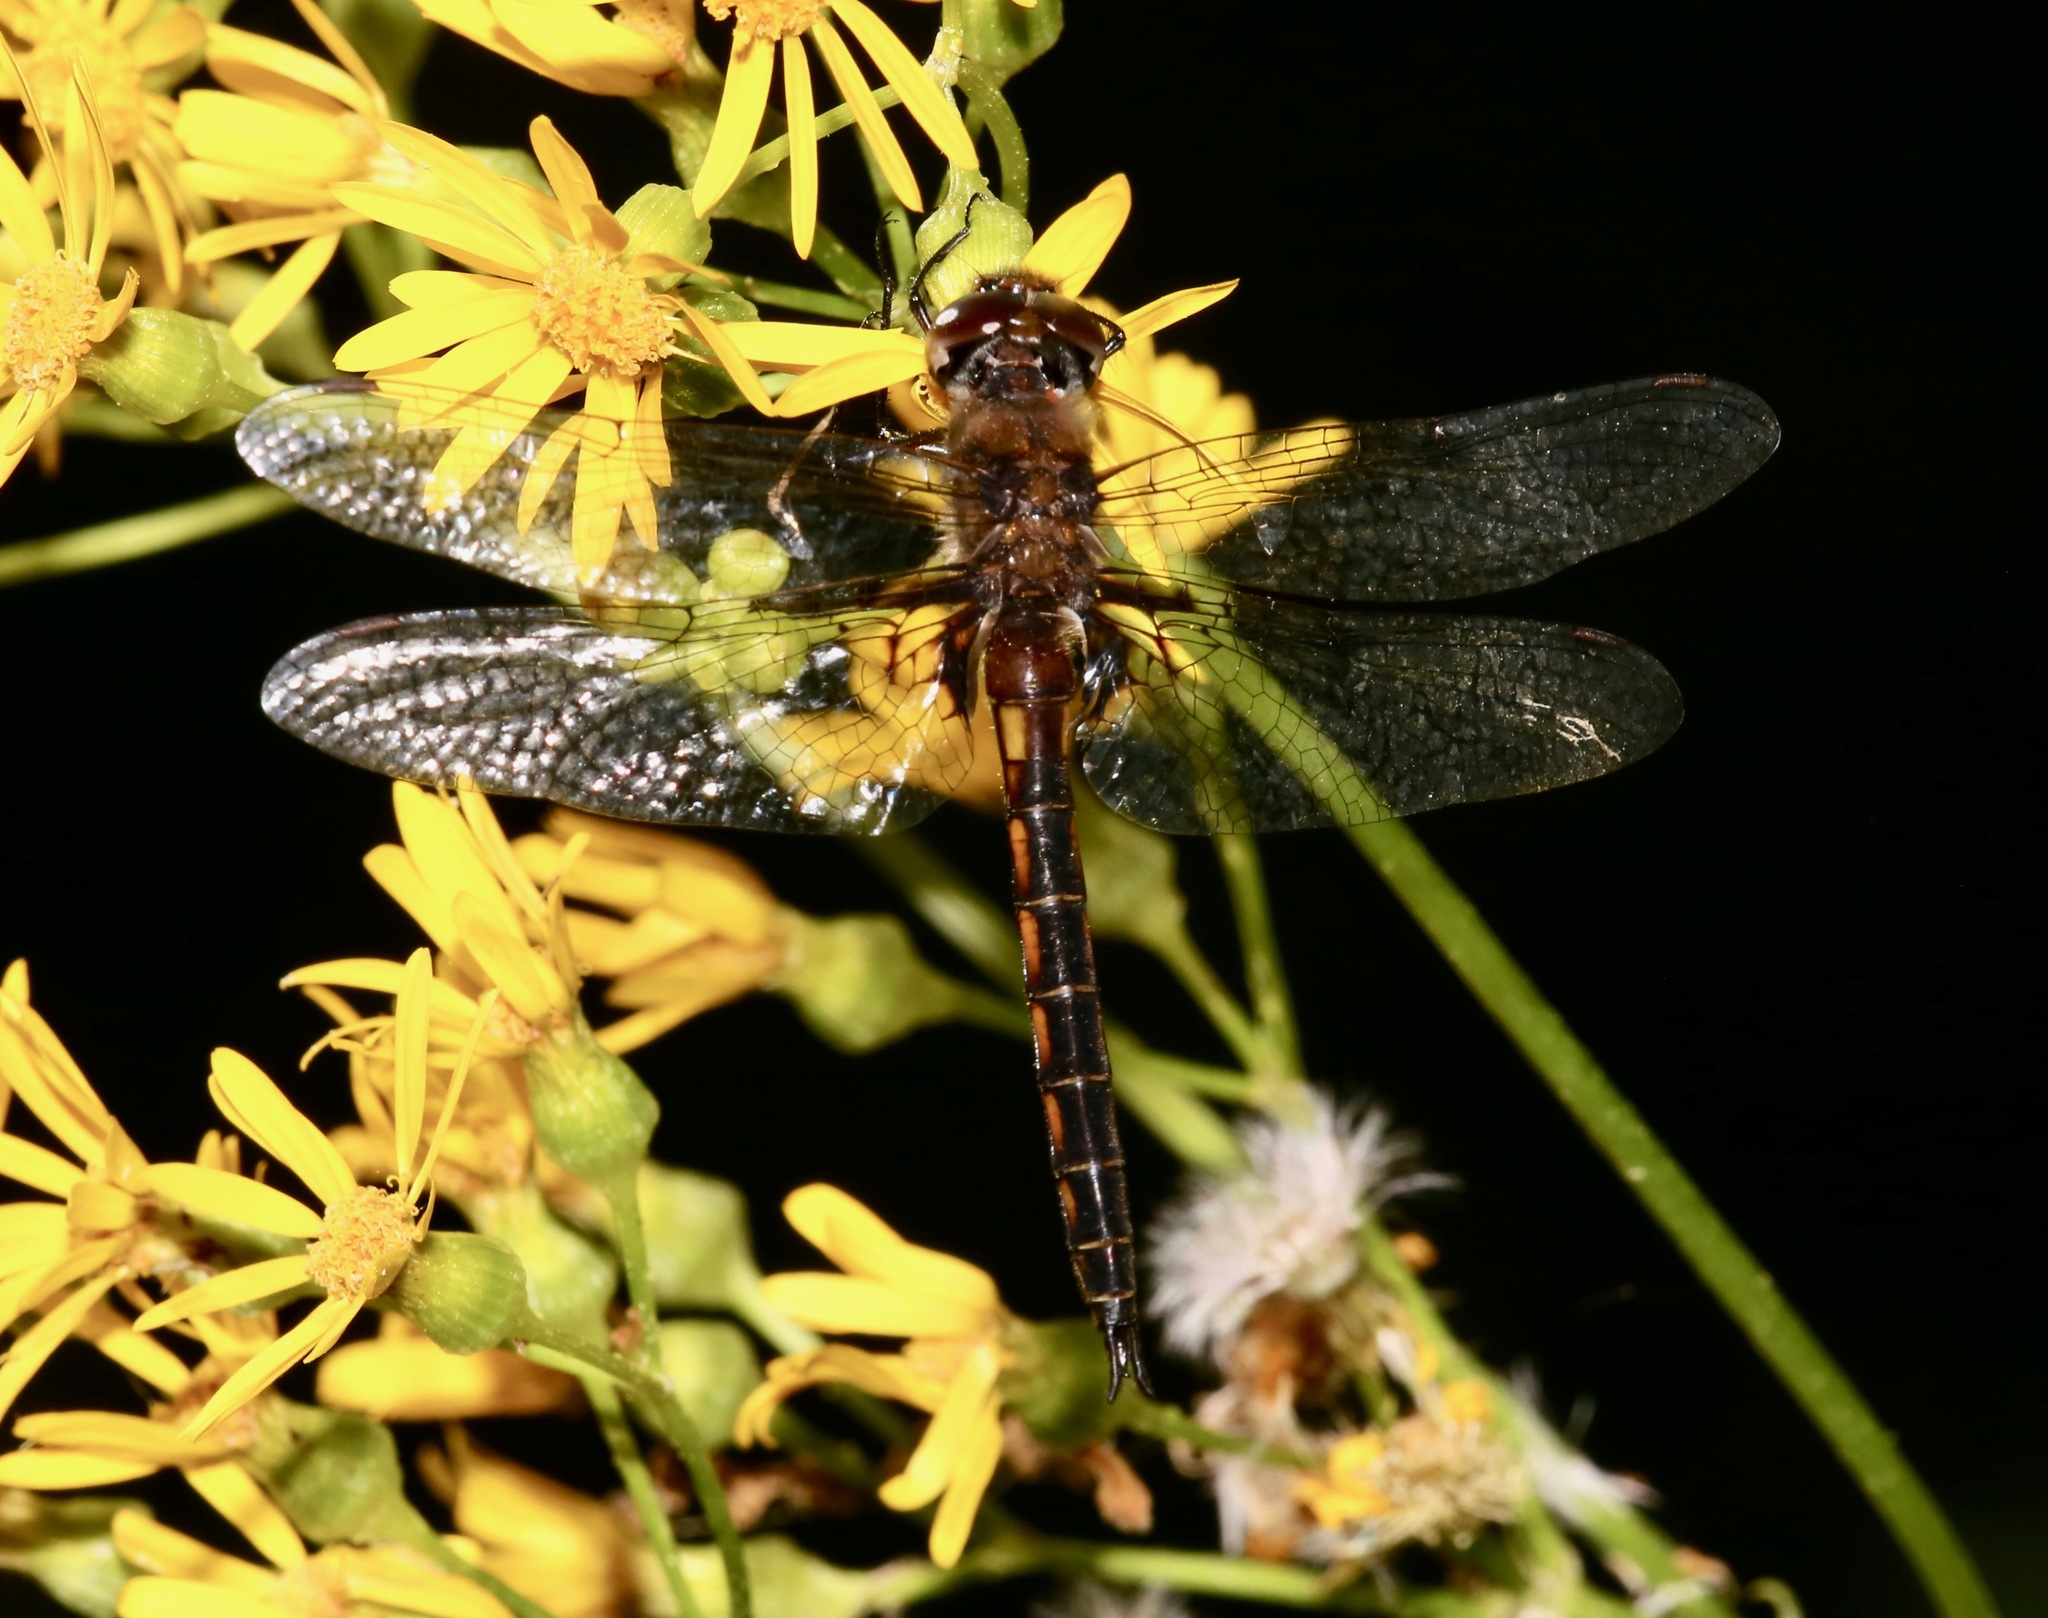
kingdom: Animalia
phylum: Arthropoda
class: Insecta
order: Odonata
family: Corduliidae
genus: Epitheca
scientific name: Epitheca cynosura
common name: Common baskettail
